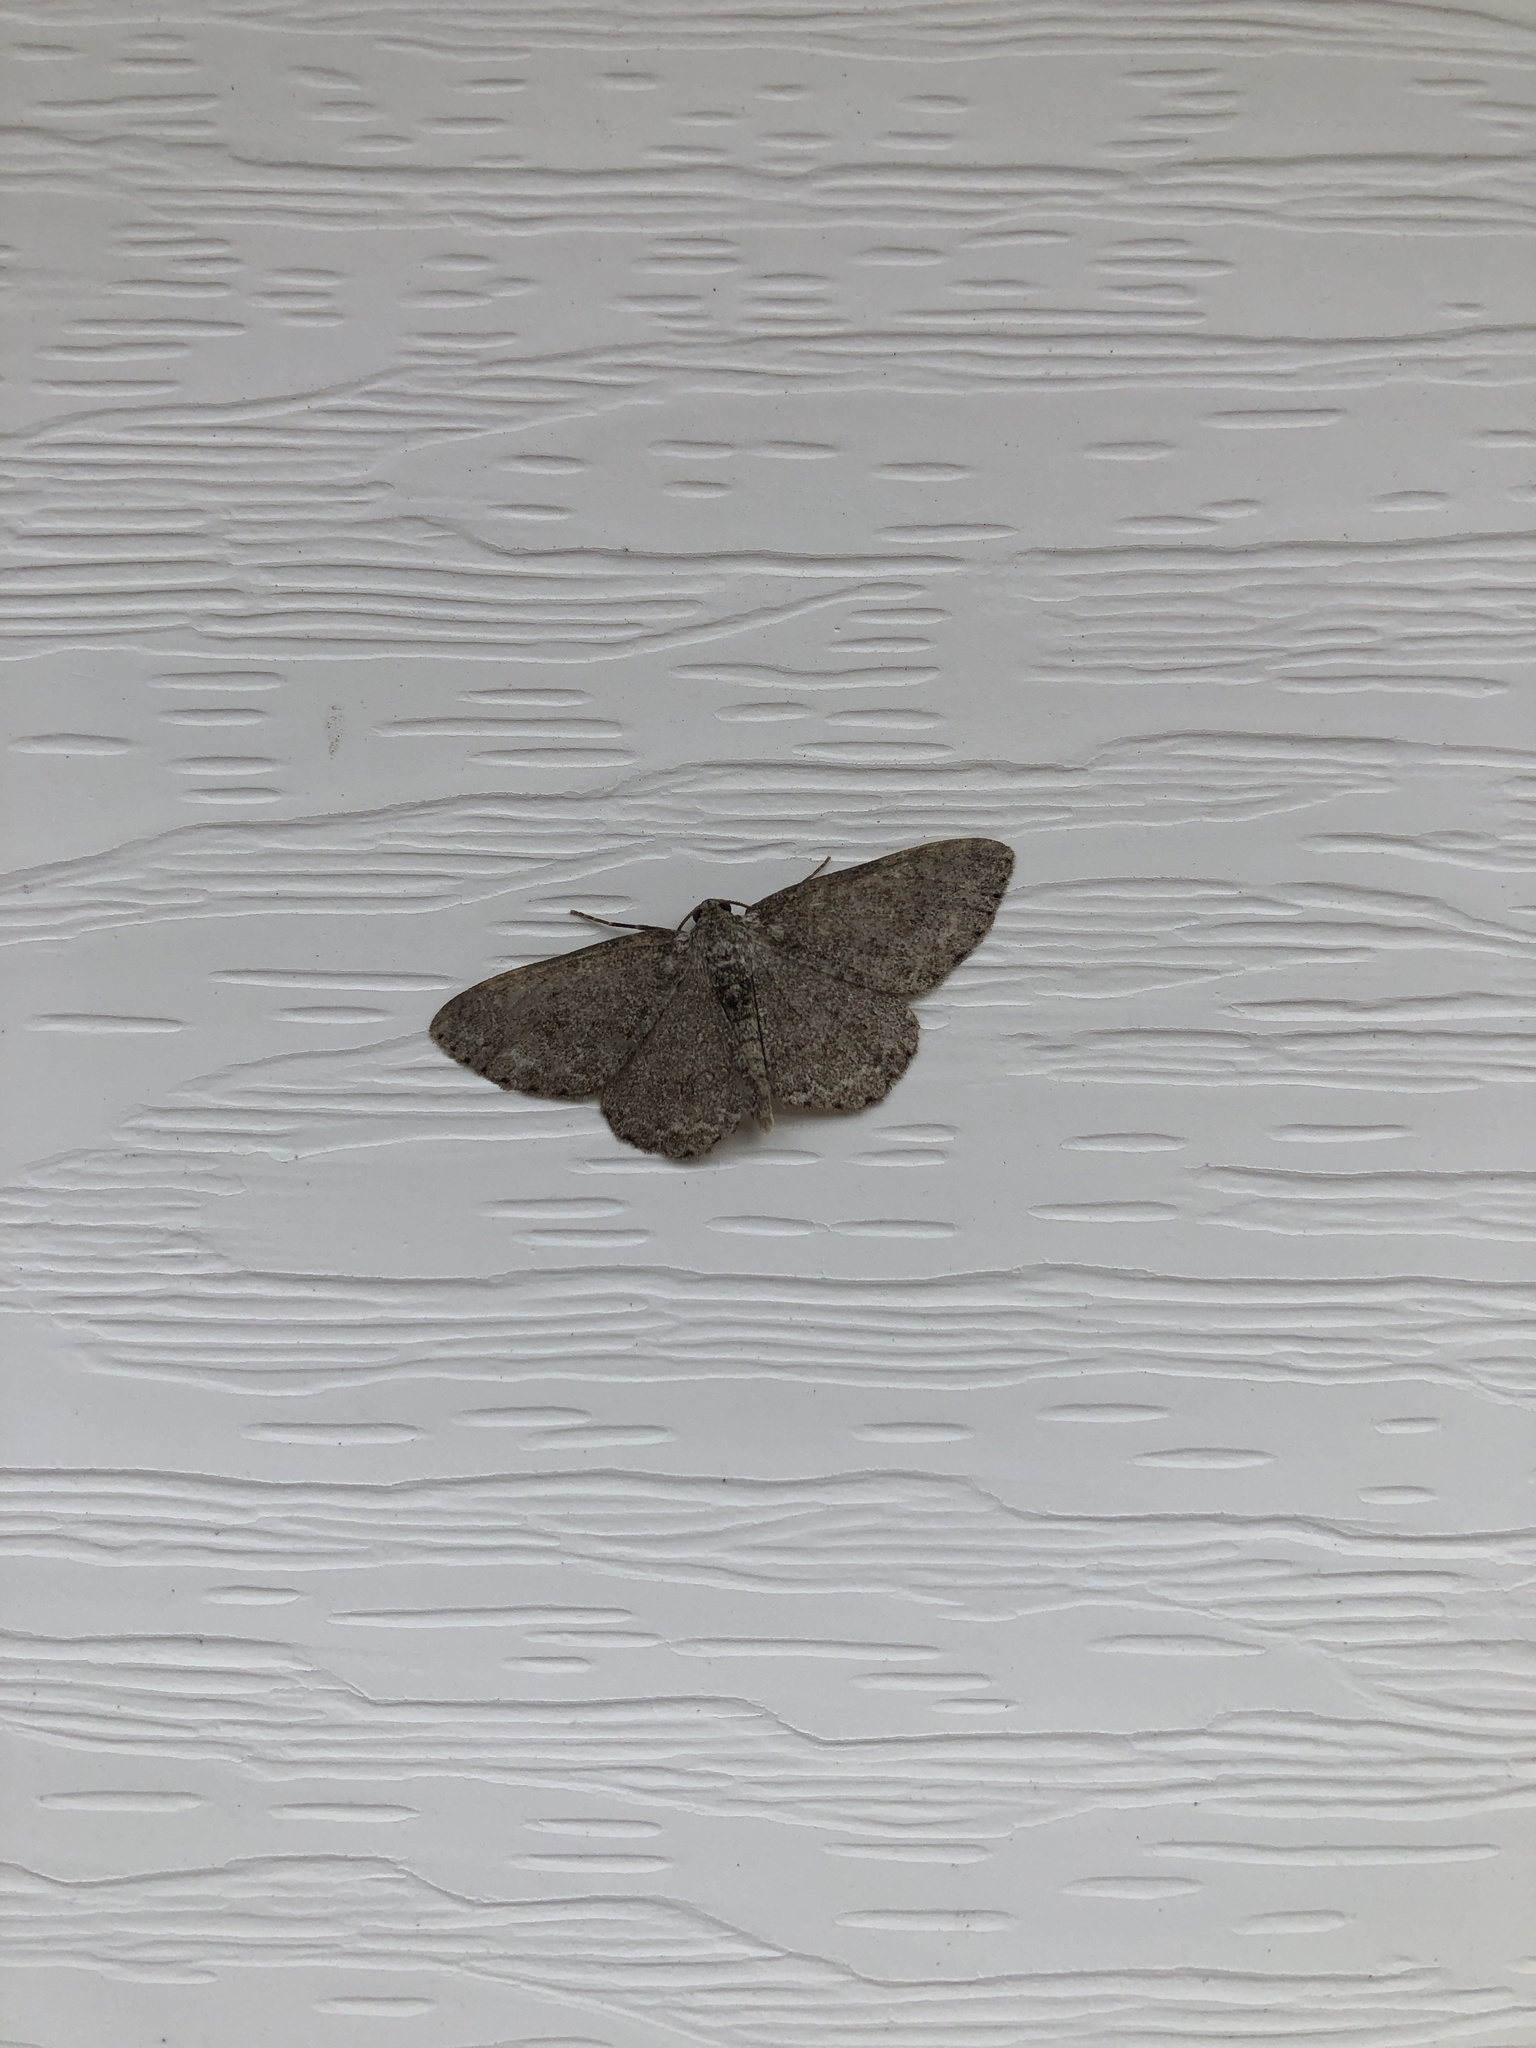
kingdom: Animalia
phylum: Arthropoda
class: Insecta
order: Lepidoptera
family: Geometridae
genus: Ectropis
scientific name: Ectropis crepuscularia
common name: Engrailed
